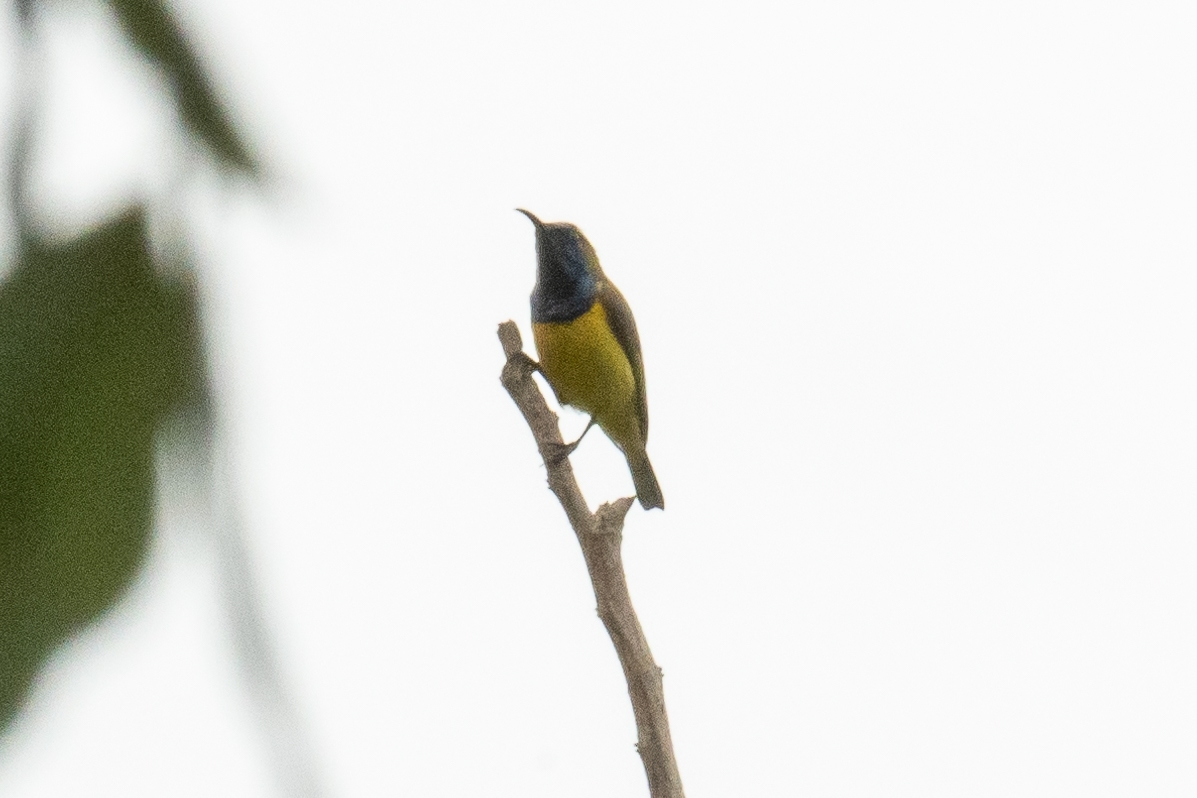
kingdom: Animalia
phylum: Chordata
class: Aves
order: Passeriformes
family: Nectariniidae
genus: Cinnyris
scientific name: Cinnyris
